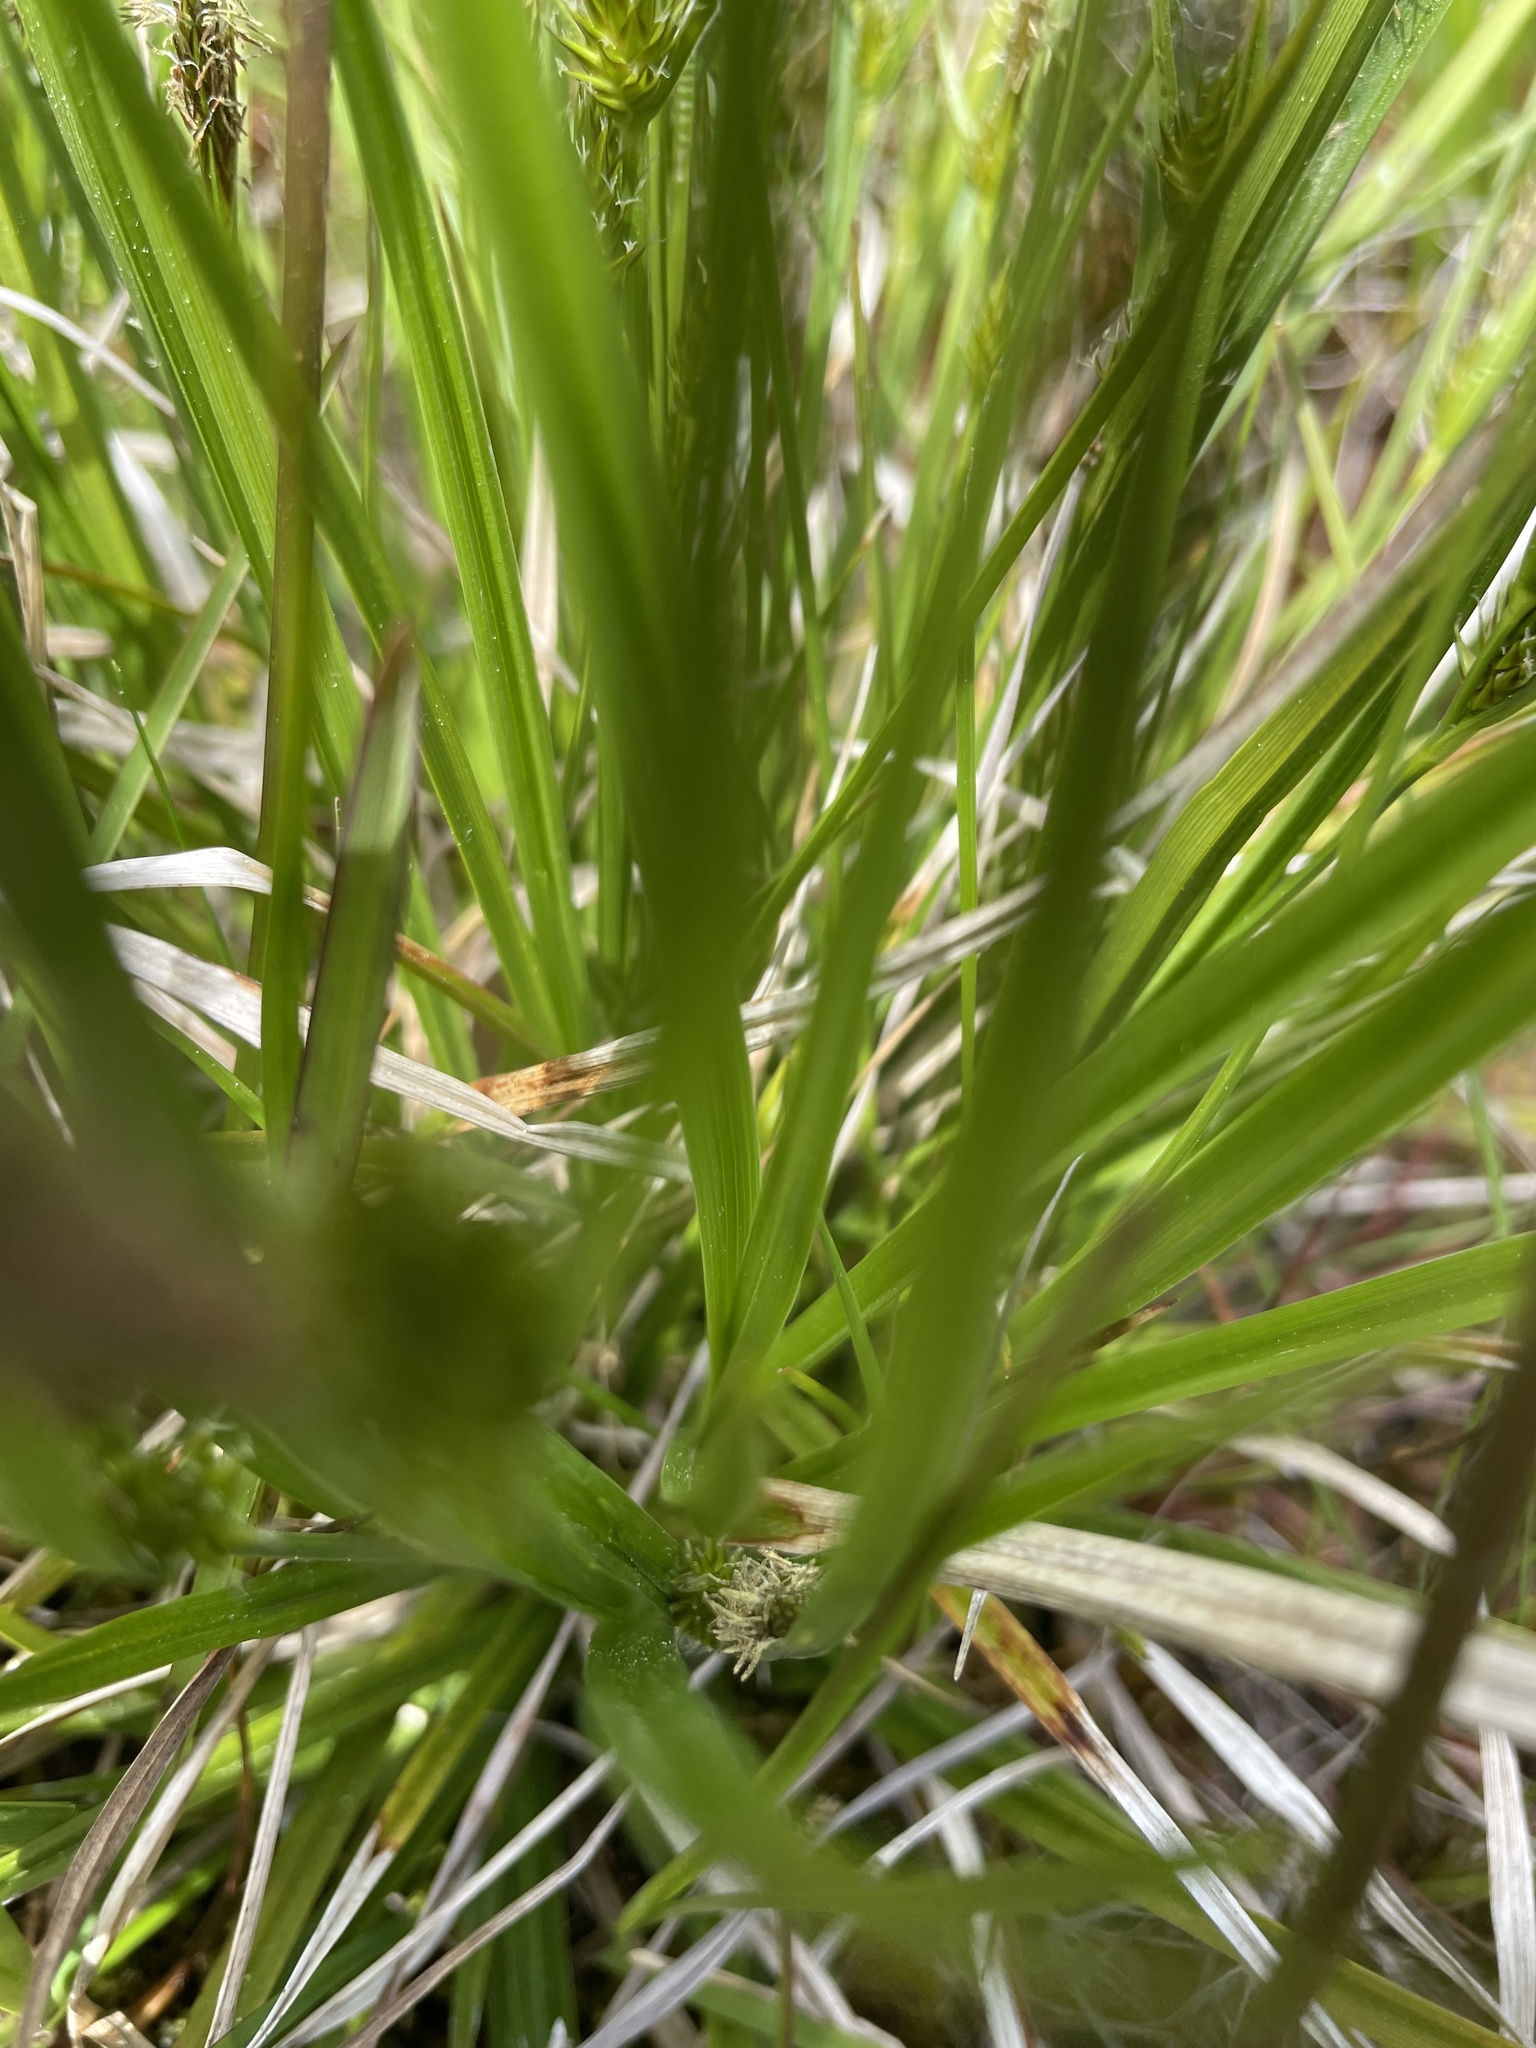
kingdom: Plantae
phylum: Tracheophyta
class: Liliopsida
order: Poales
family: Cyperaceae
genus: Carex
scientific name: Carex flava
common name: Large yellow-sedge
